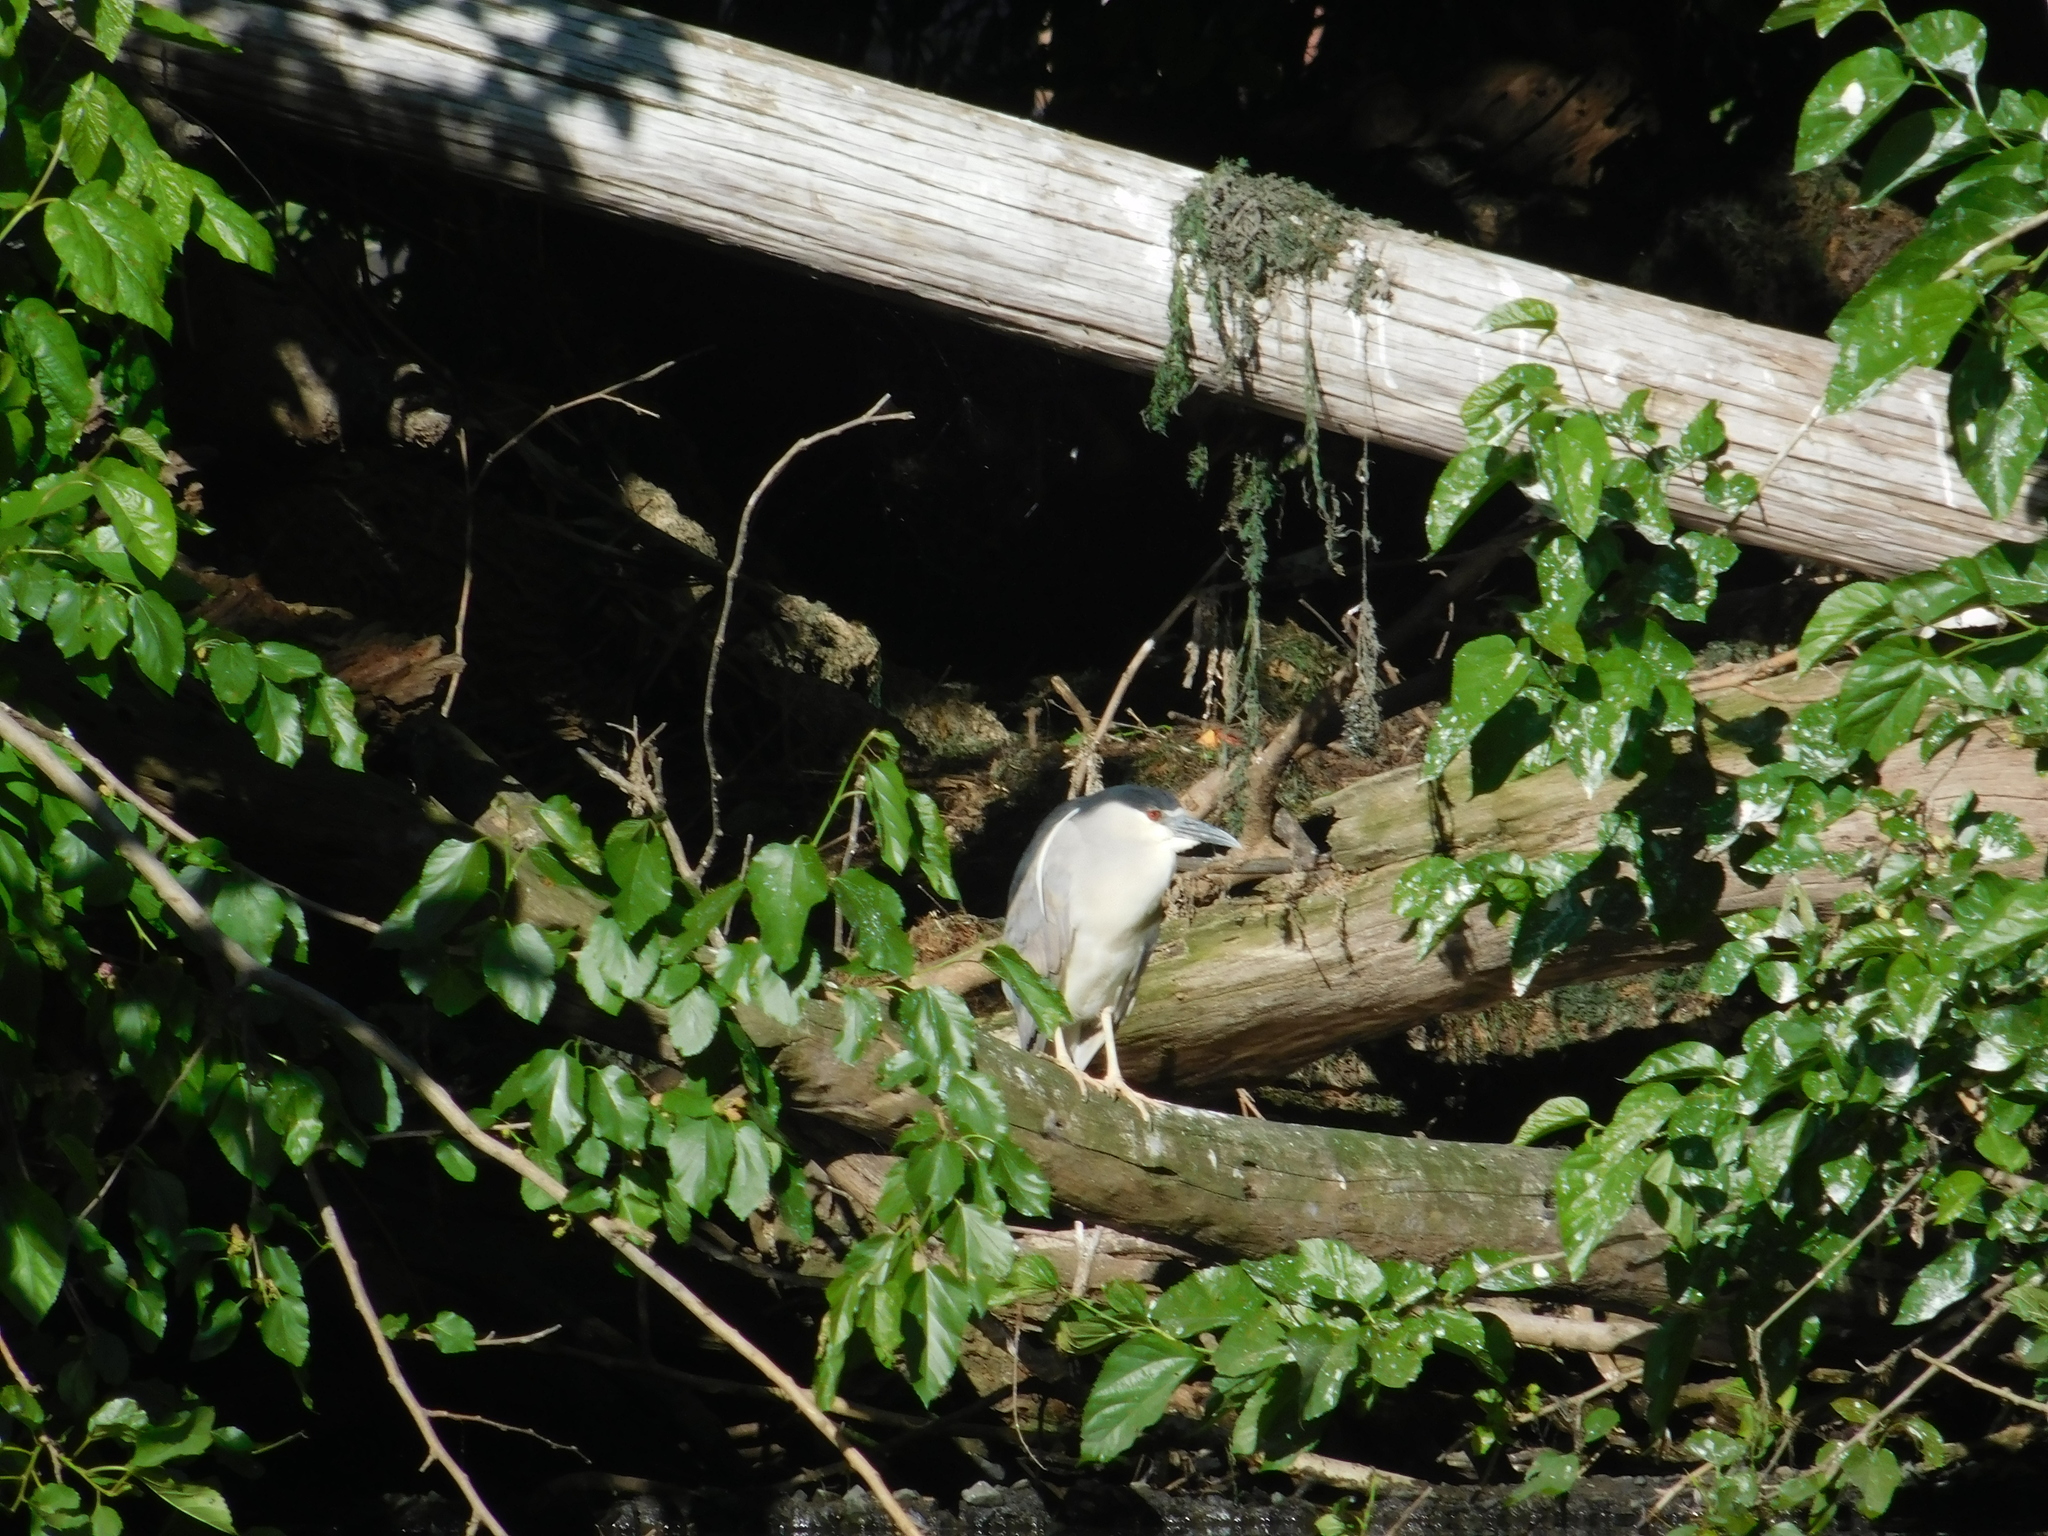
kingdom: Animalia
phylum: Chordata
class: Aves
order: Pelecaniformes
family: Ardeidae
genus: Nycticorax
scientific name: Nycticorax nycticorax
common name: Black-crowned night heron
